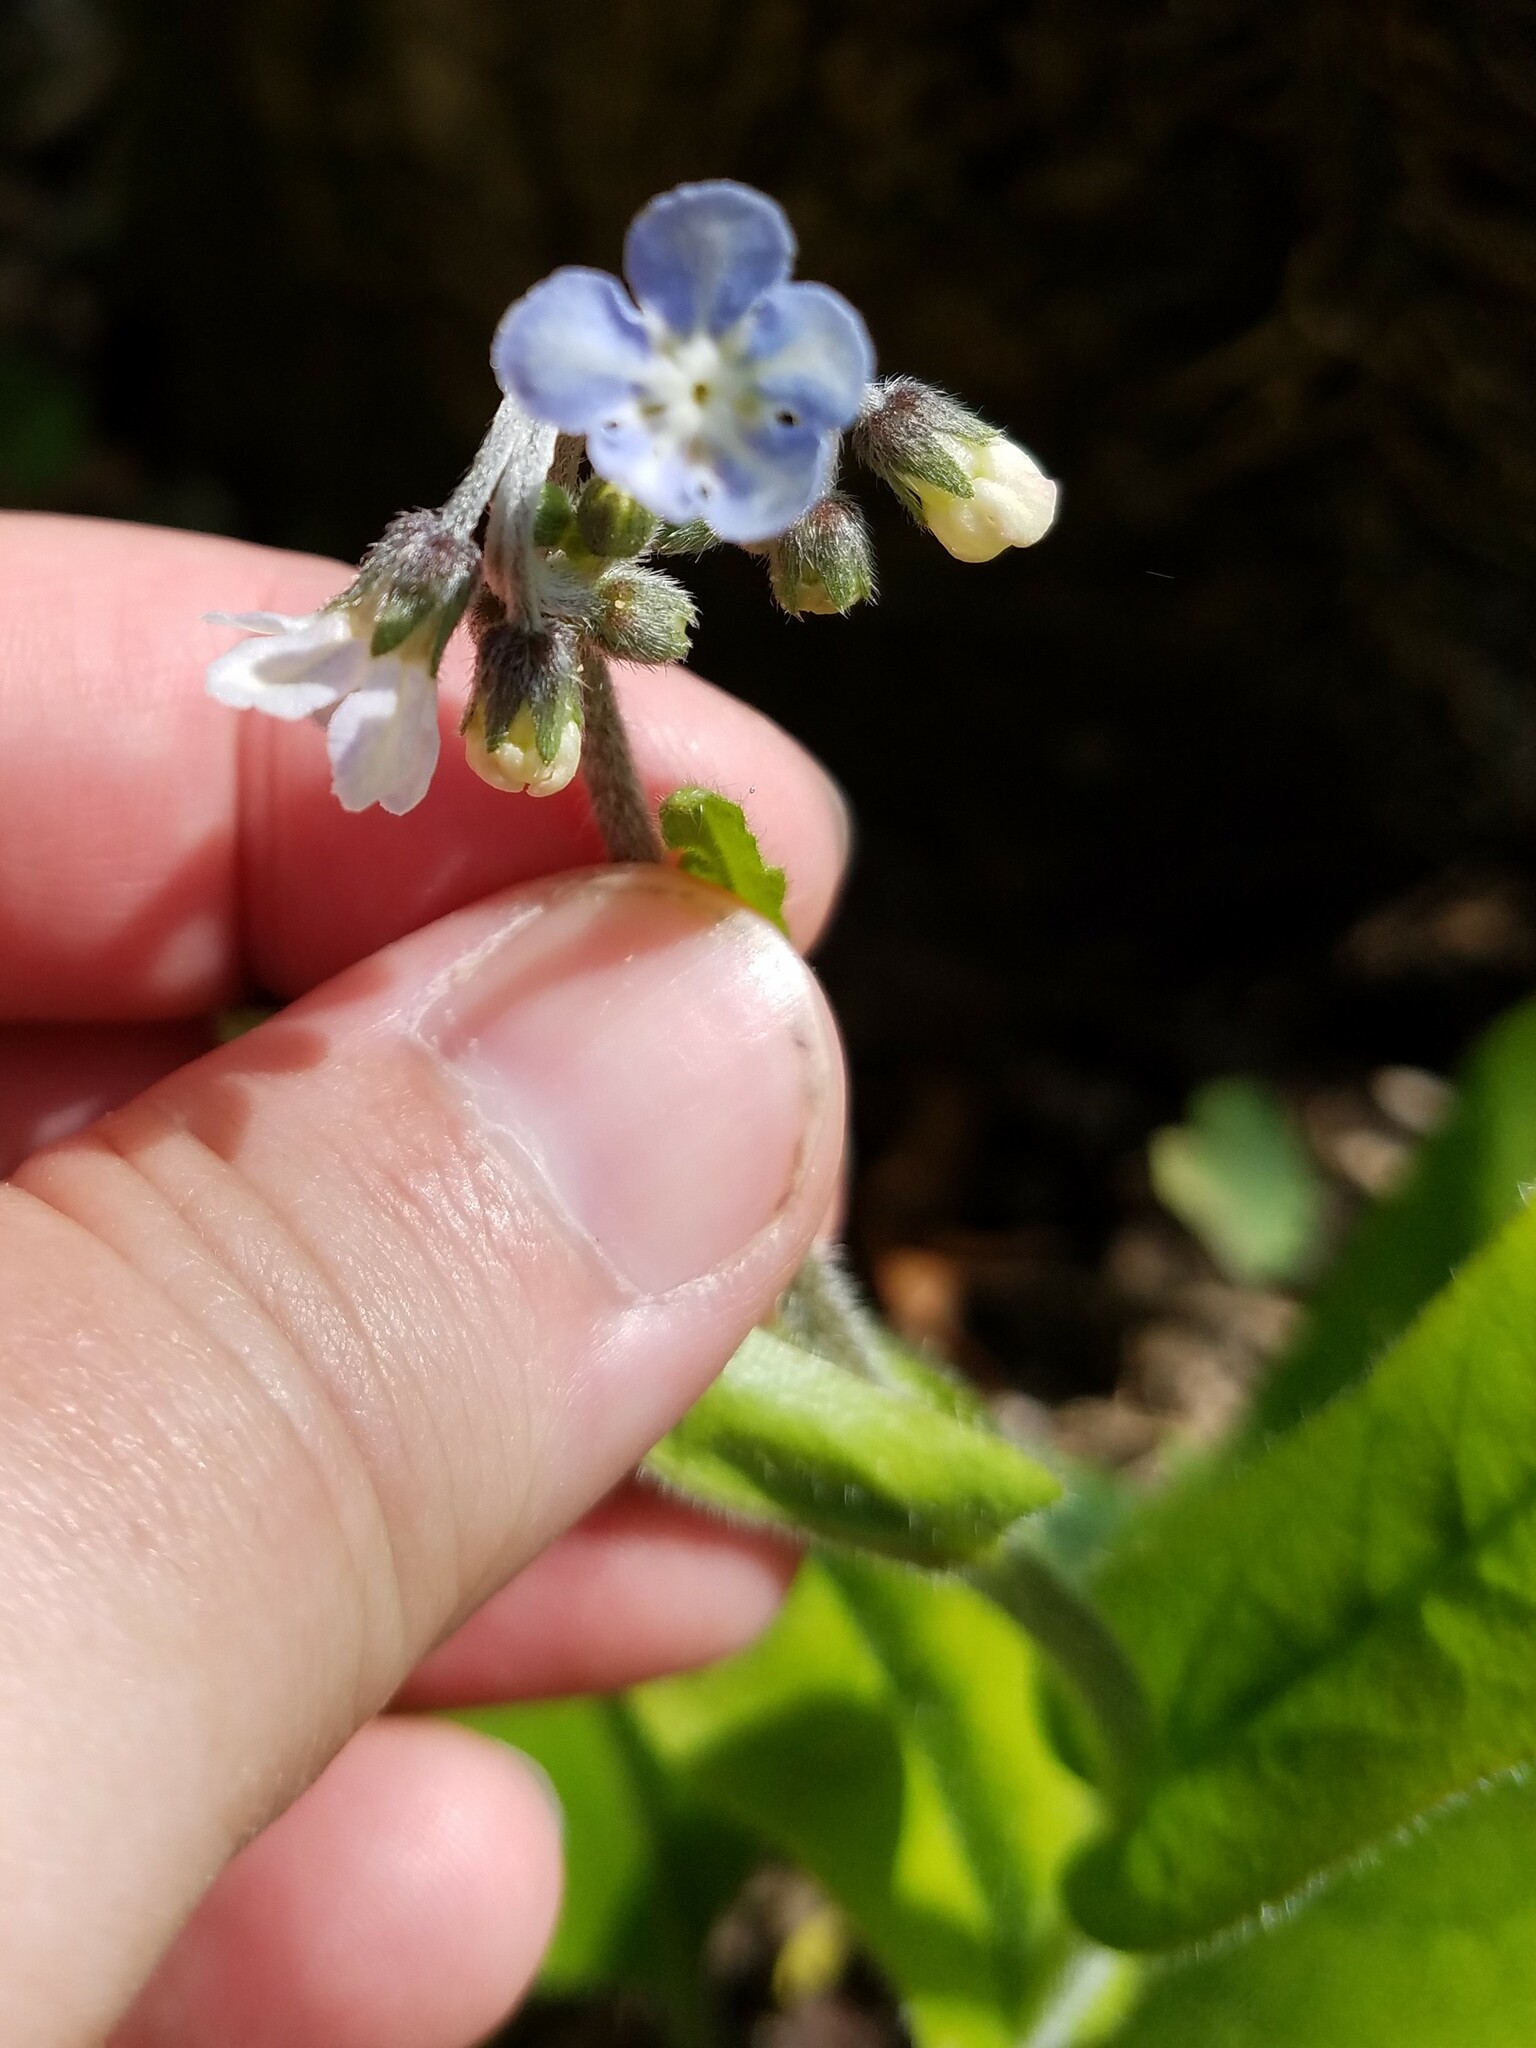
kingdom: Plantae
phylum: Tracheophyta
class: Magnoliopsida
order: Boraginales
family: Boraginaceae
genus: Andersonglossum
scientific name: Andersonglossum virginianum
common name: Wild comfrey
